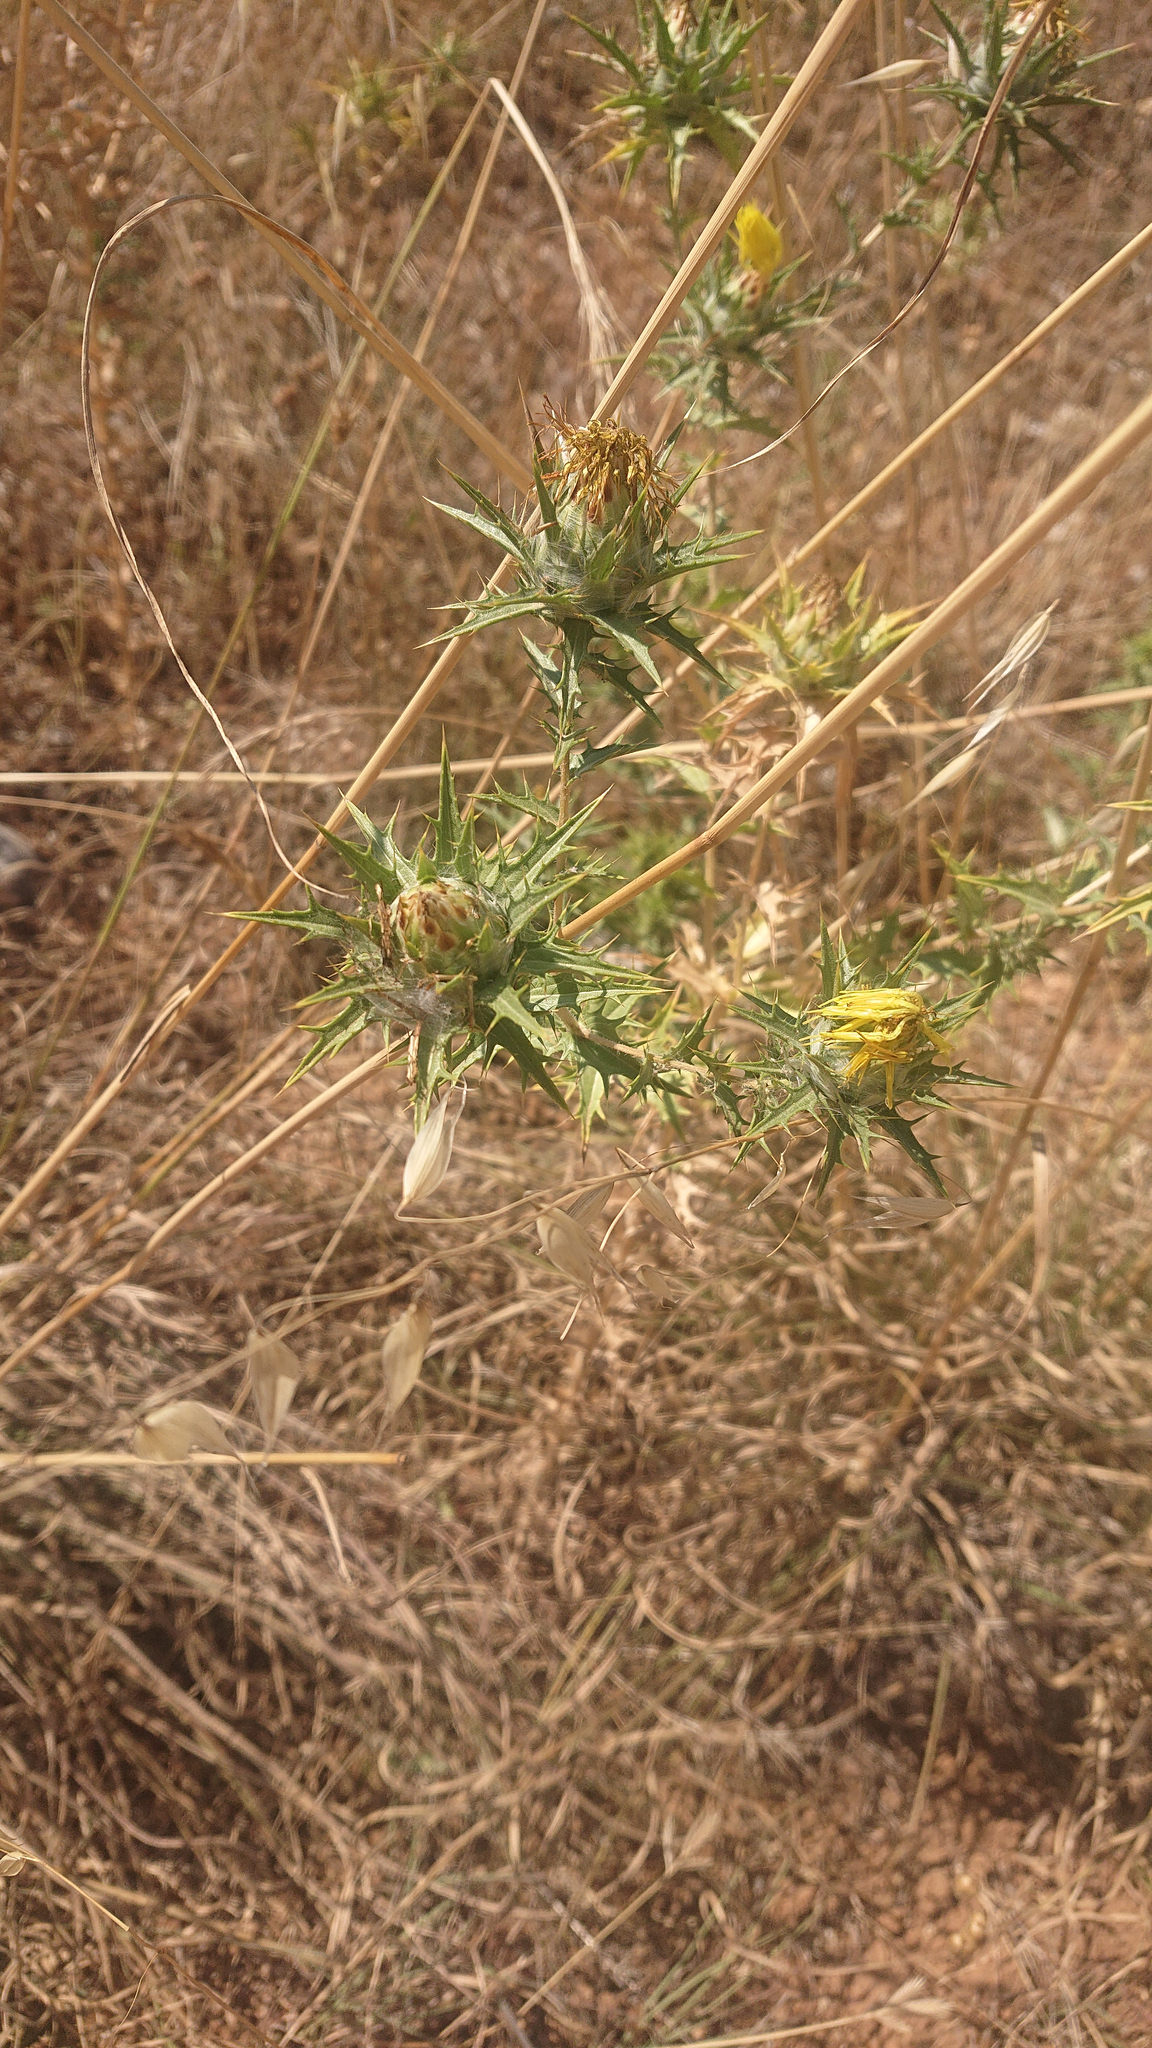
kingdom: Plantae
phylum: Tracheophyta
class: Magnoliopsida
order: Asterales
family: Asteraceae
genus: Carthamus
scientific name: Carthamus lanatus
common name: Downy safflower
